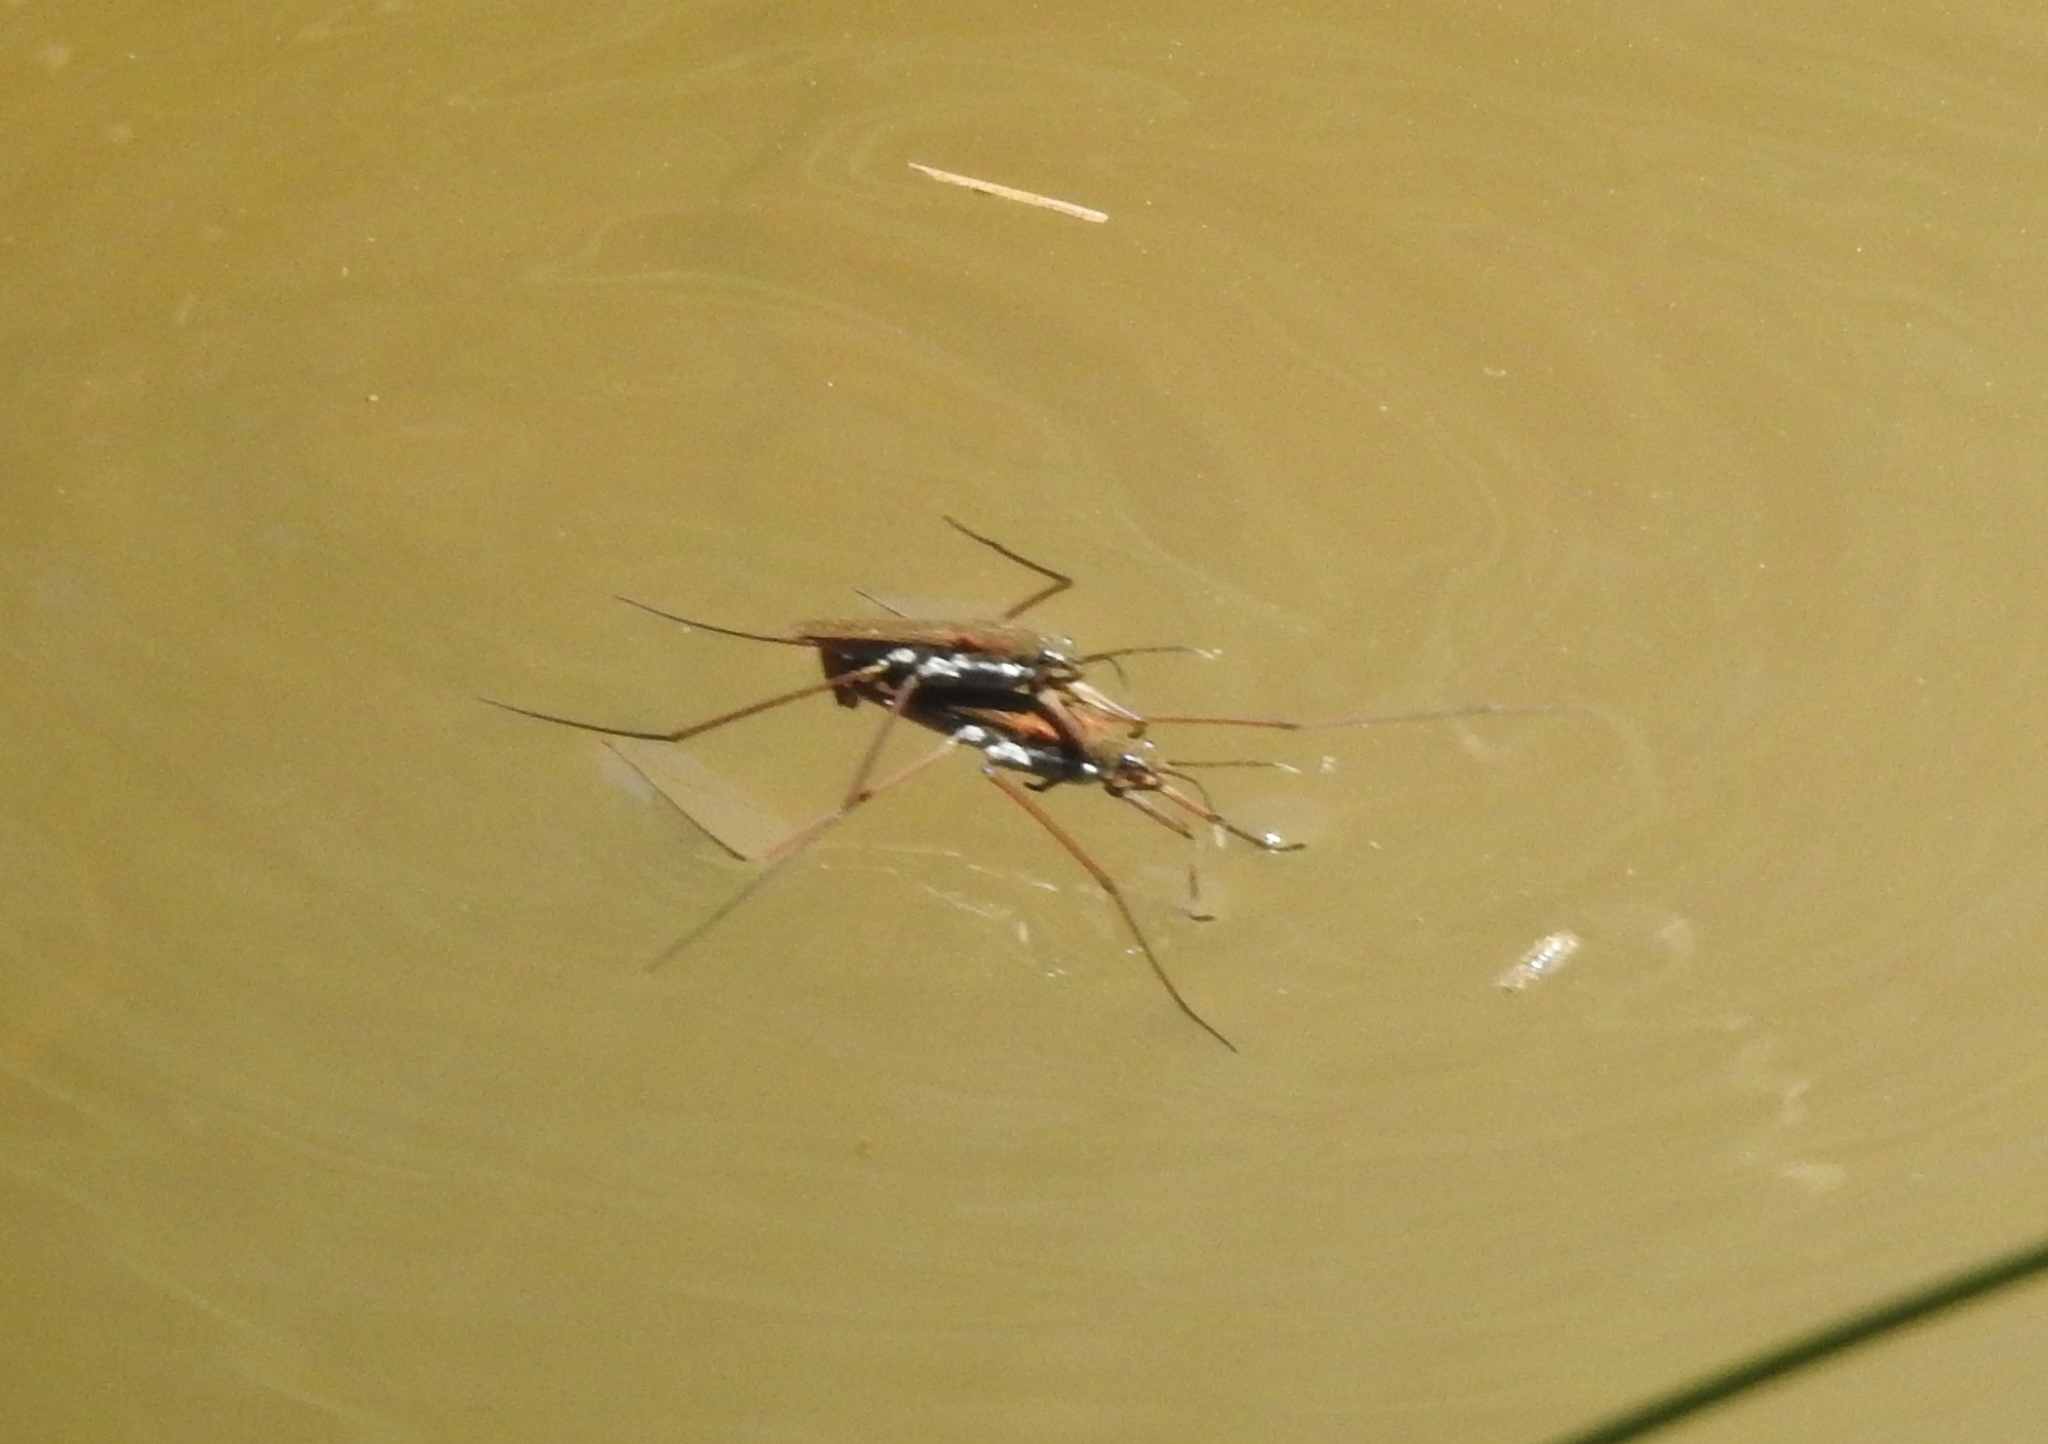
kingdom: Animalia
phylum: Arthropoda
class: Insecta
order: Hemiptera
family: Gerridae
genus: Aquarius
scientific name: Aquarius remigis
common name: Common water strider
